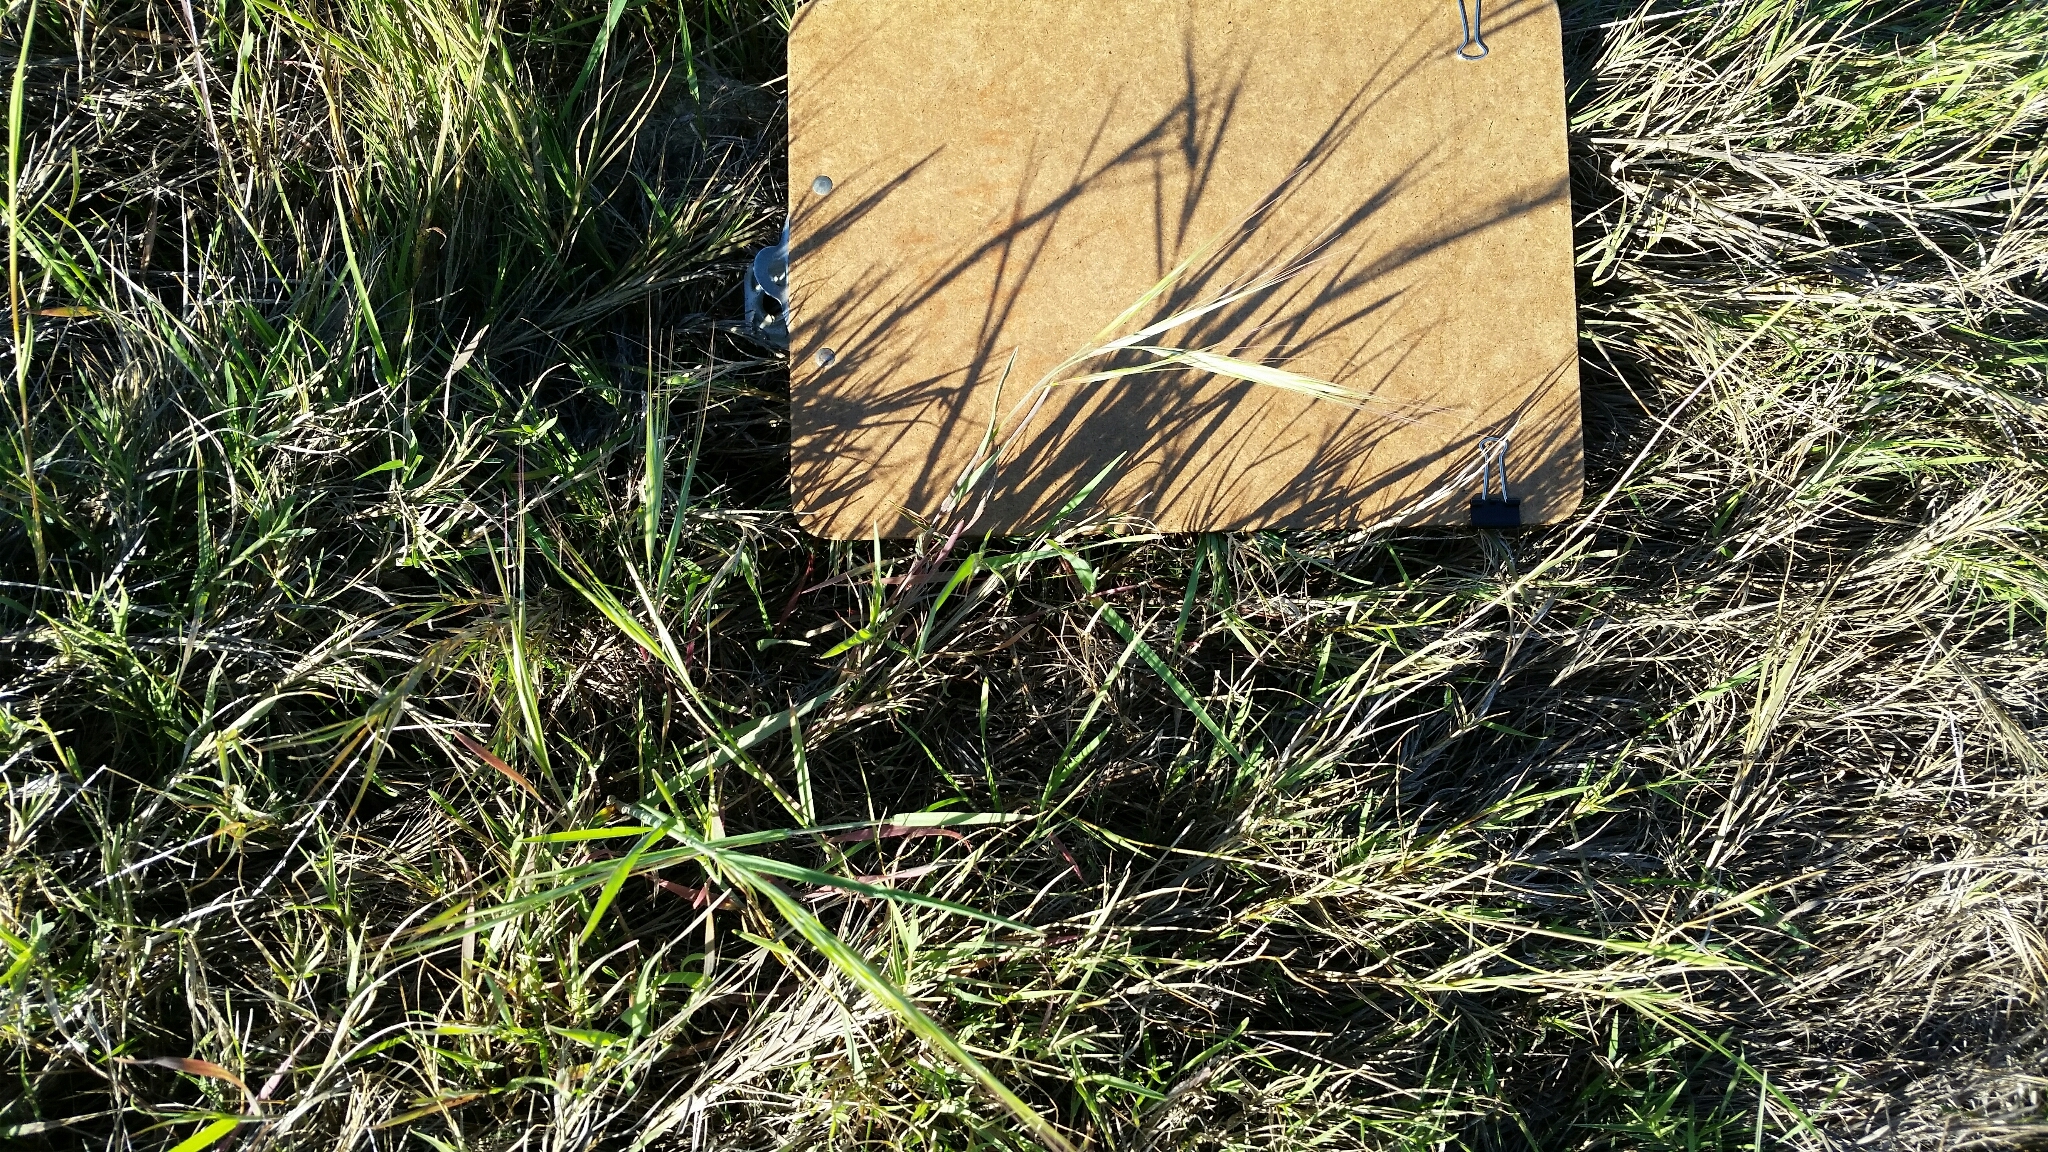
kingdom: Plantae
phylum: Tracheophyta
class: Liliopsida
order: Poales
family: Poaceae
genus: Bromus
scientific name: Bromus diandrus
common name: Ripgut brome
